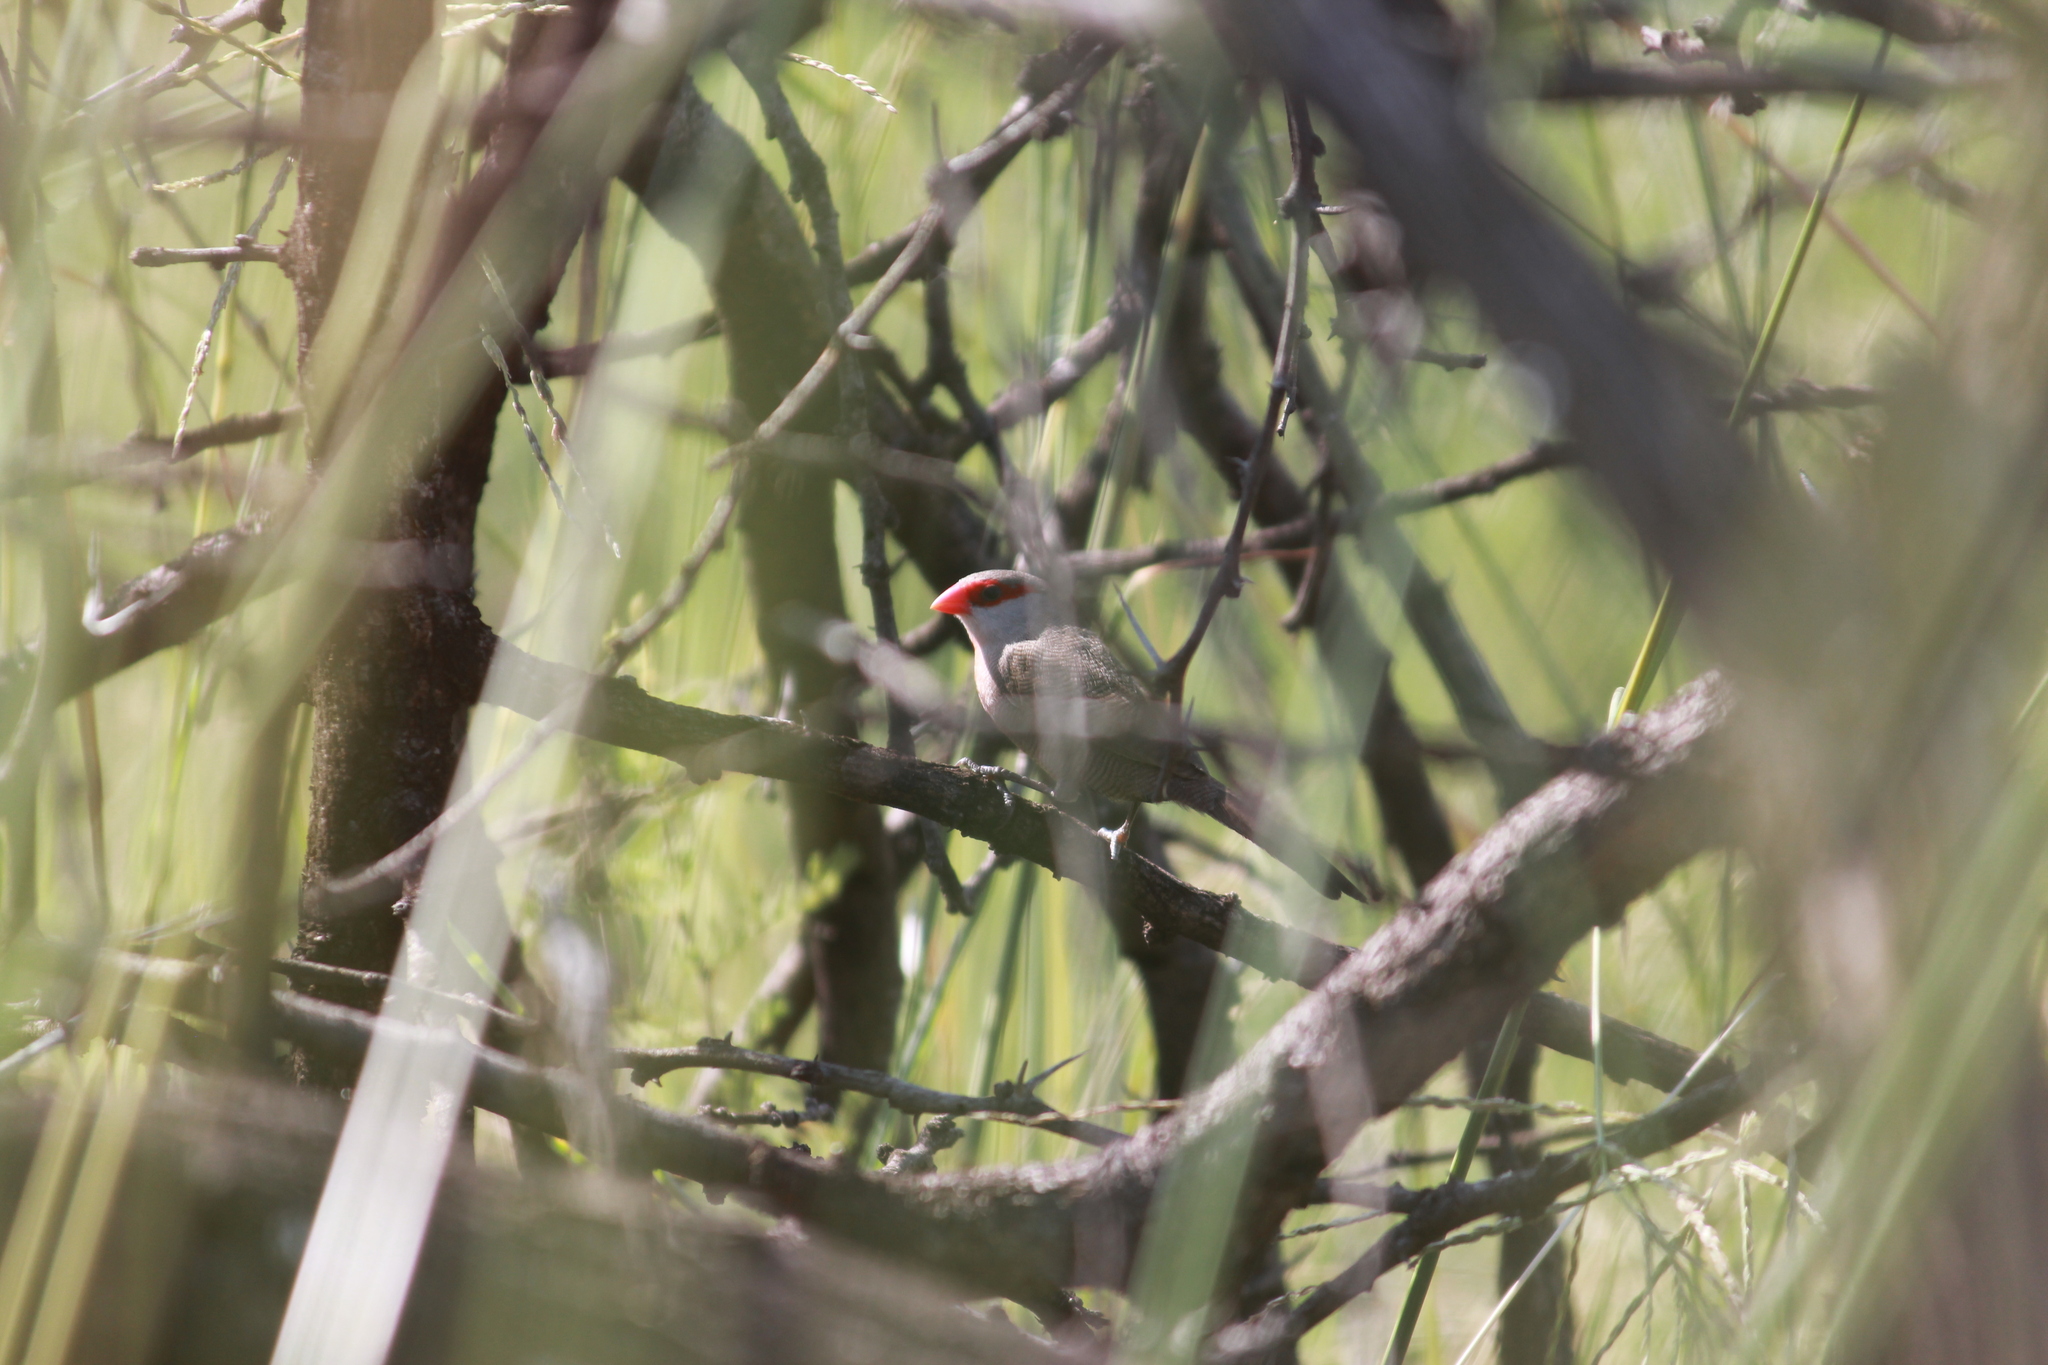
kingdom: Animalia
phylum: Chordata
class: Aves
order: Passeriformes
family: Estrildidae
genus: Estrilda
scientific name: Estrilda astrild
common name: Common waxbill
